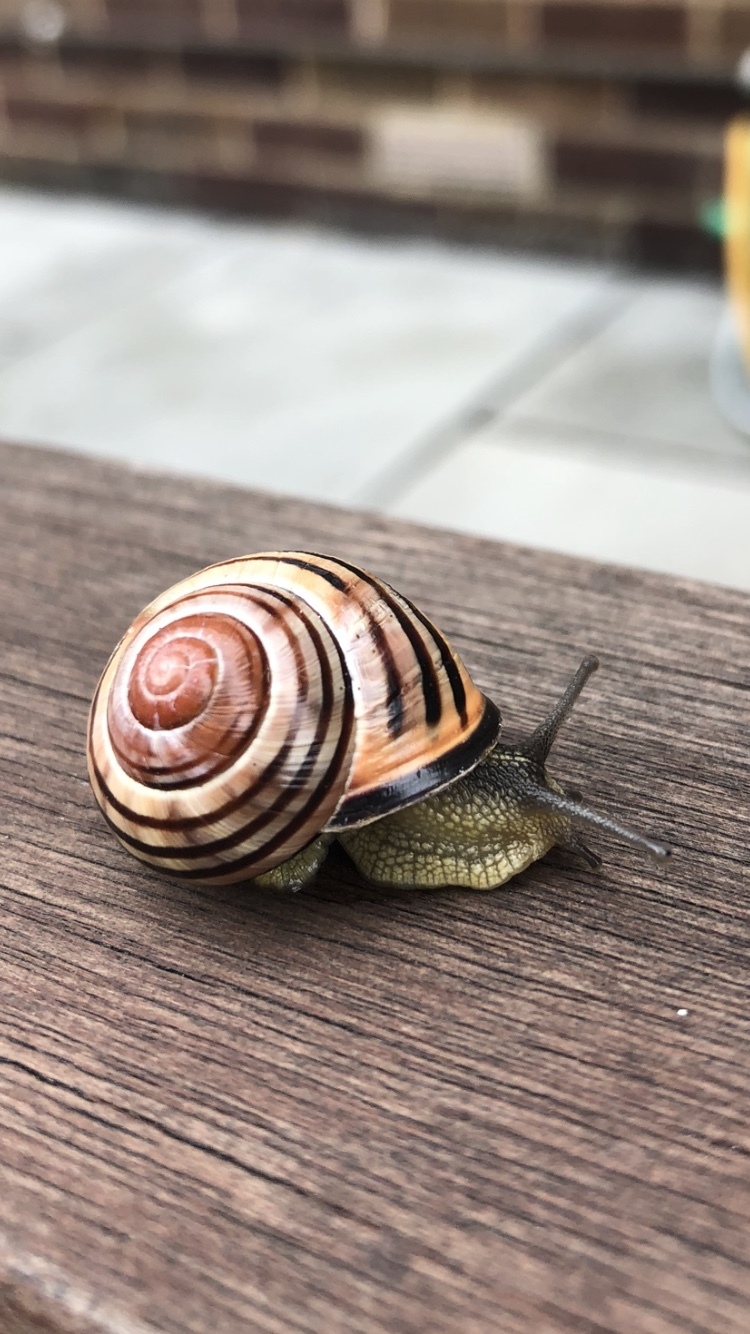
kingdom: Animalia
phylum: Mollusca
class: Gastropoda
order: Stylommatophora
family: Helicidae
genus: Cepaea
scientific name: Cepaea nemoralis
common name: Grovesnail
